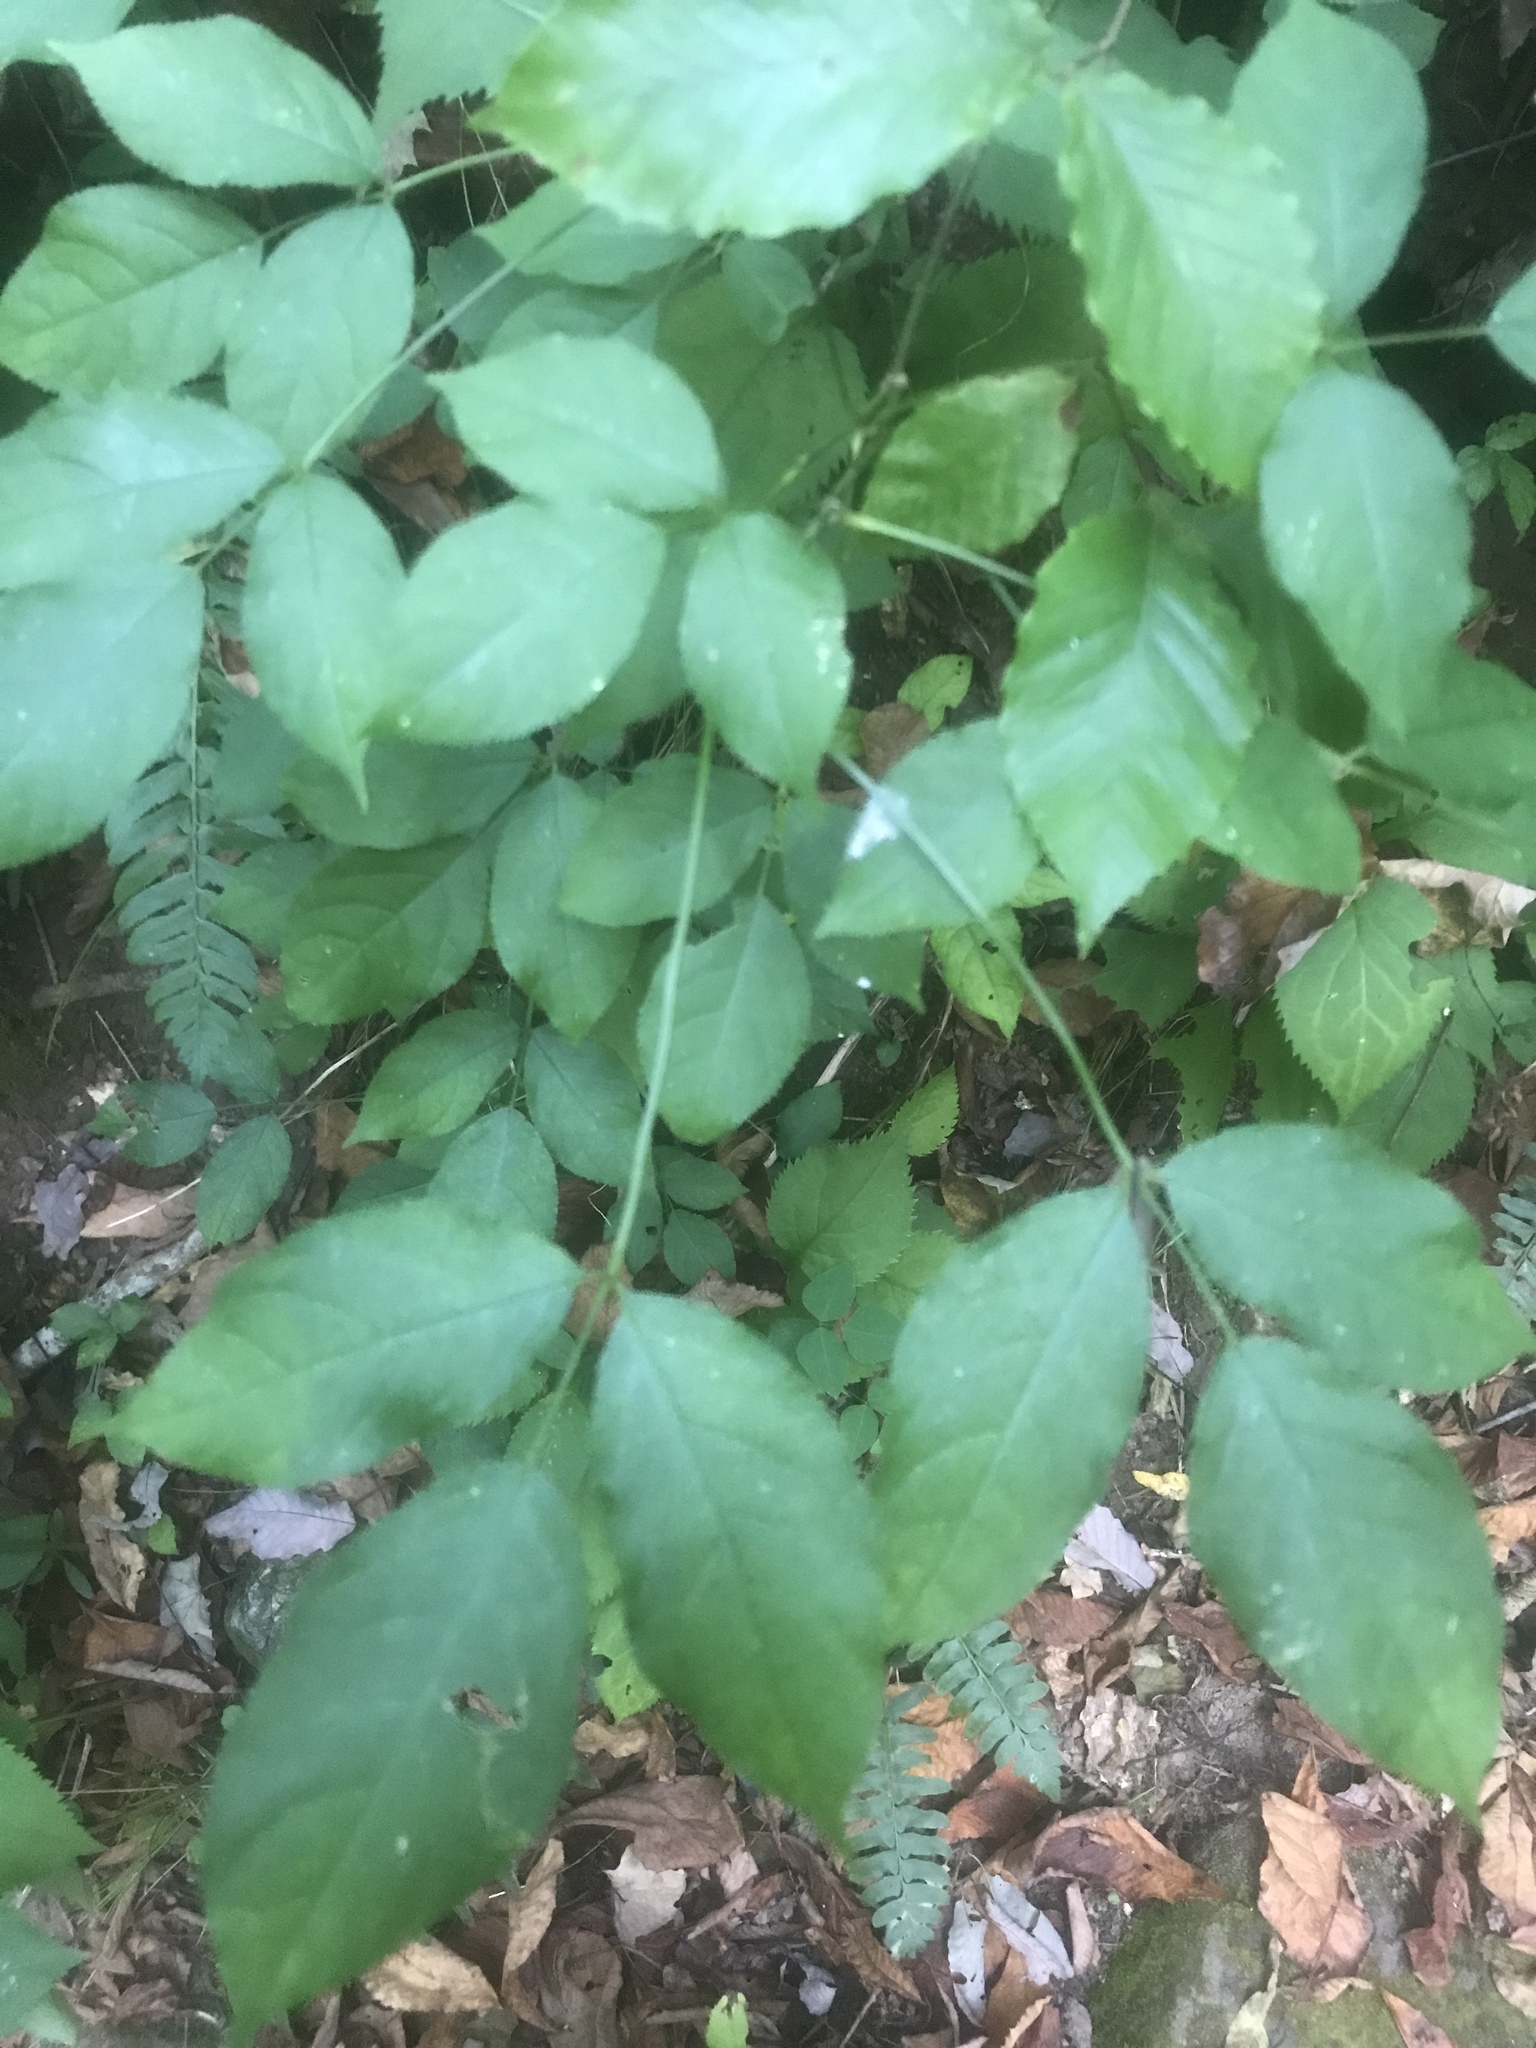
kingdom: Plantae
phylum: Tracheophyta
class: Magnoliopsida
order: Crossosomatales
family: Staphyleaceae
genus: Staphylea
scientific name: Staphylea trifolia
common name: American bladdernut
